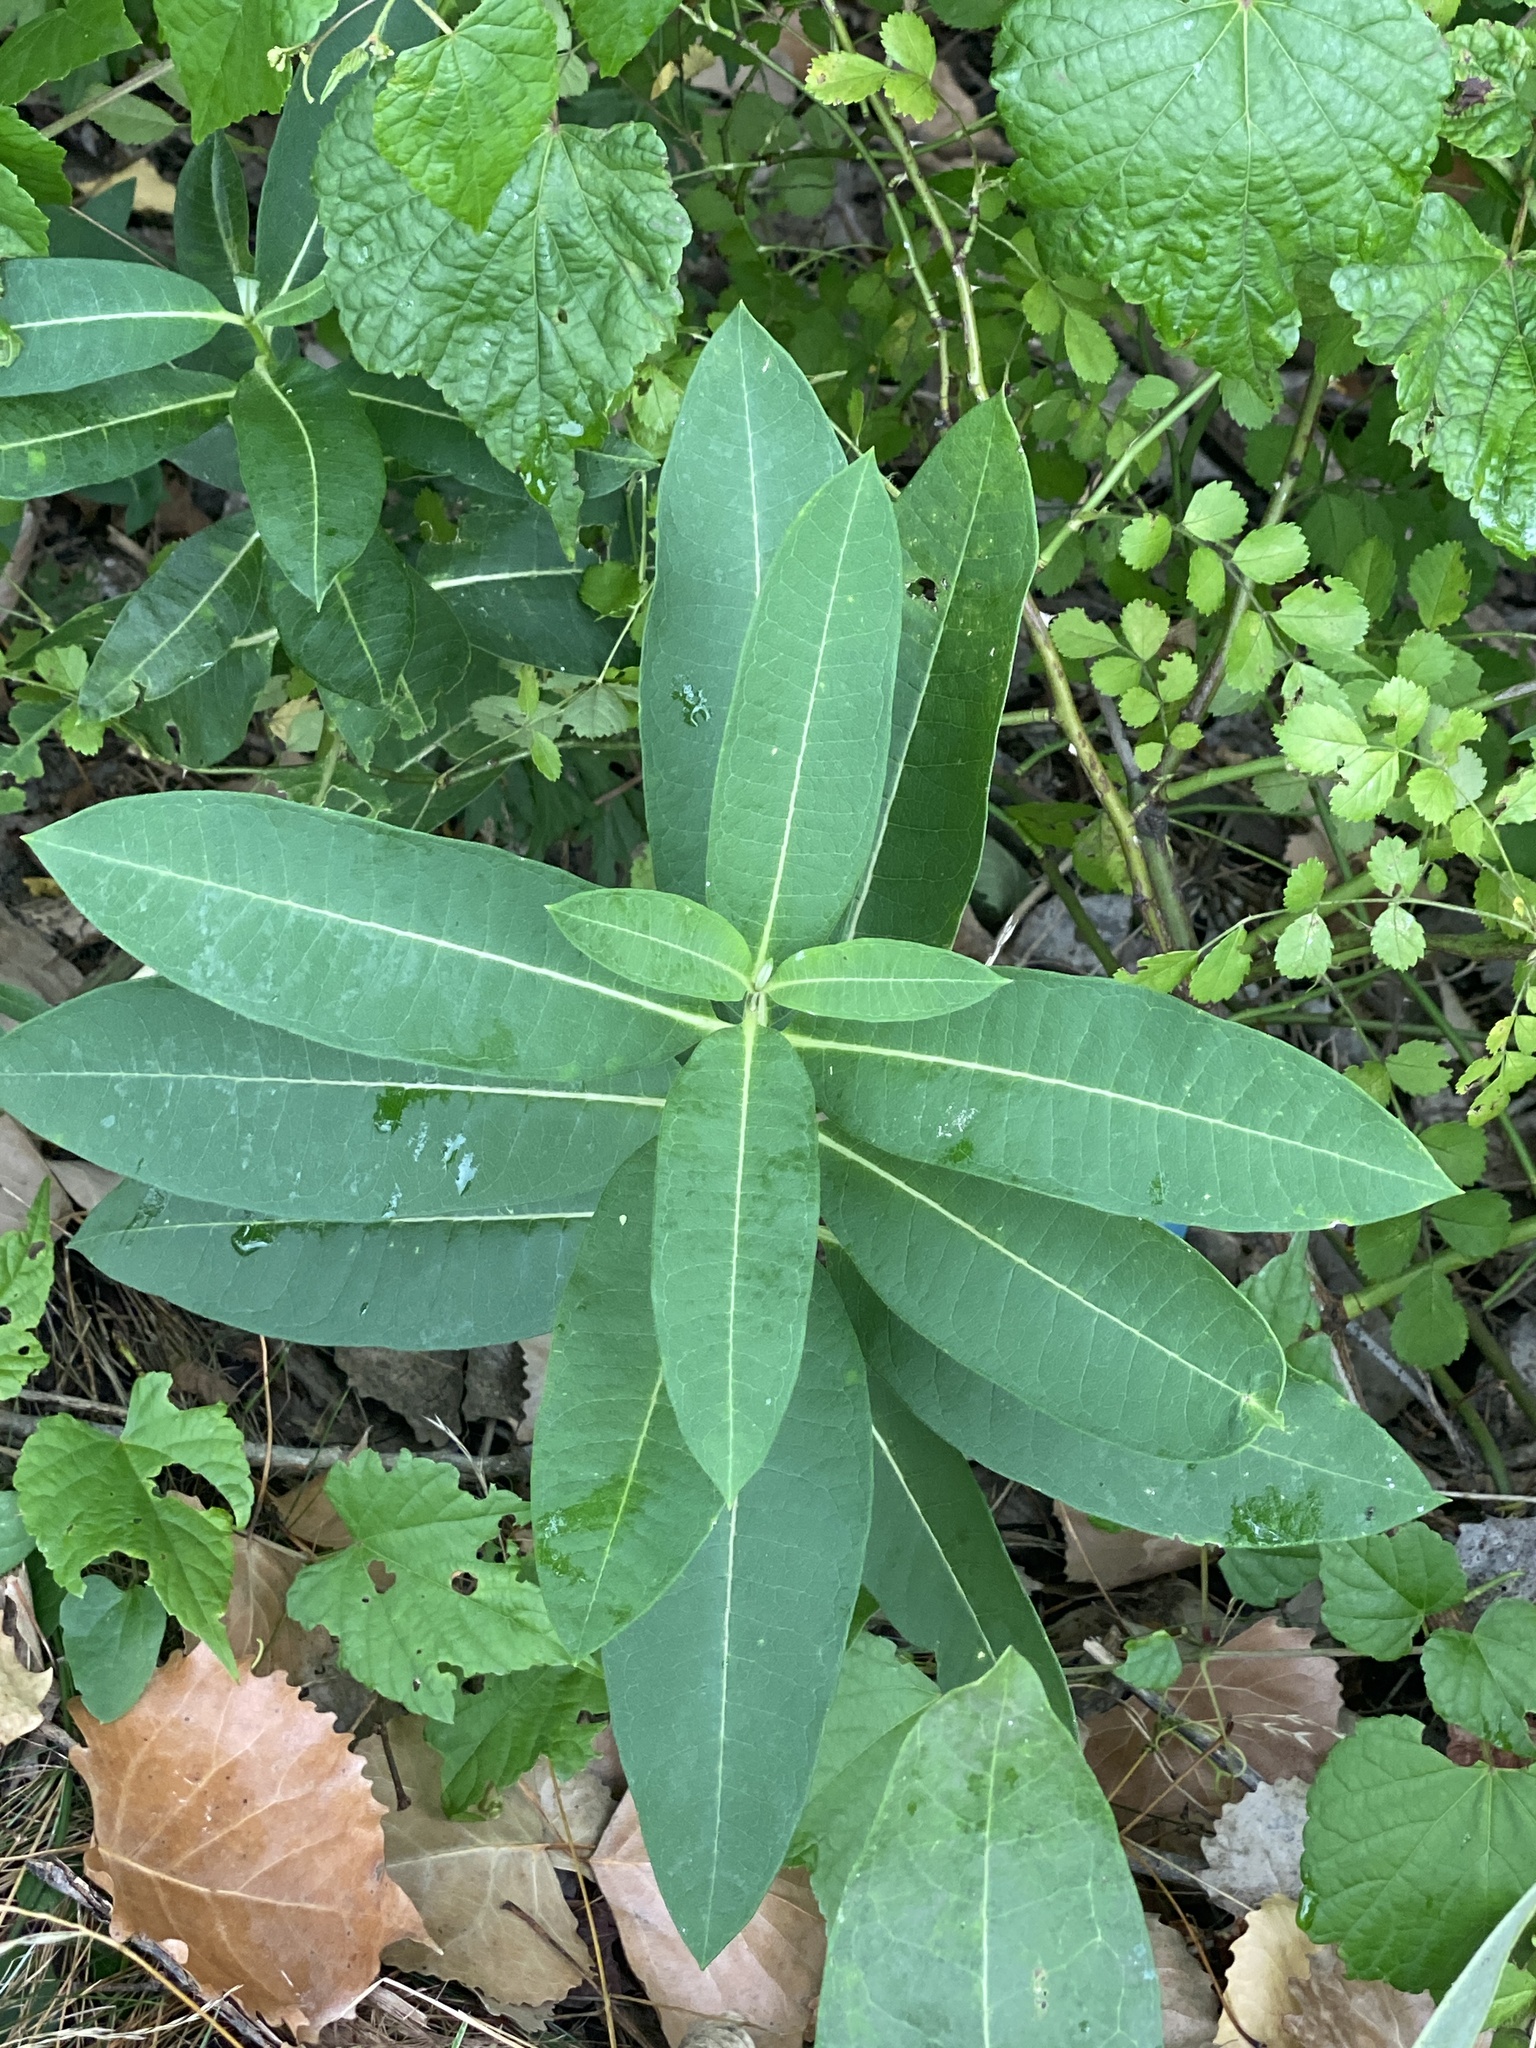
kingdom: Plantae
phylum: Tracheophyta
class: Magnoliopsida
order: Gentianales
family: Apocynaceae
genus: Asclepias
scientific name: Asclepias syriaca
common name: Common milkweed
